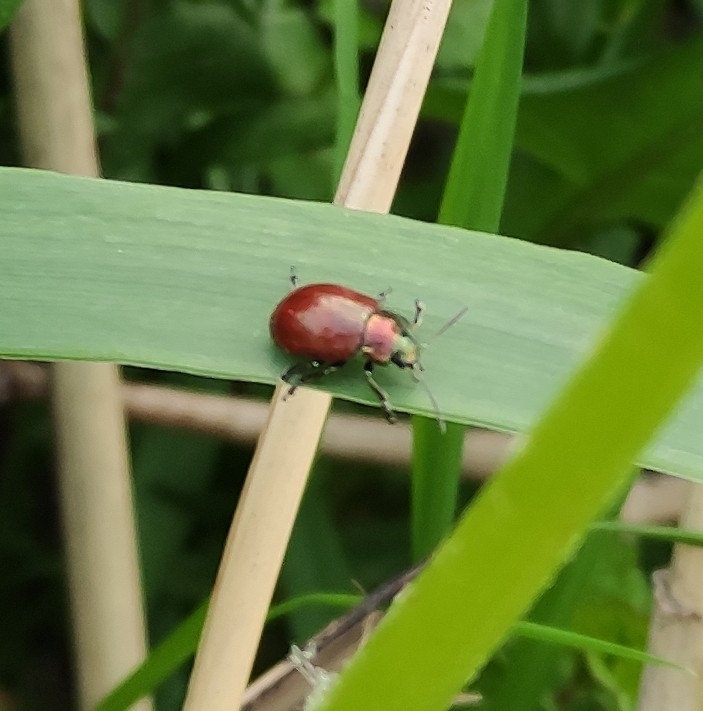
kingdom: Animalia
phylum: Arthropoda
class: Insecta
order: Coleoptera
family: Chrysomelidae
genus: Chrysomela
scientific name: Chrysomela polita
